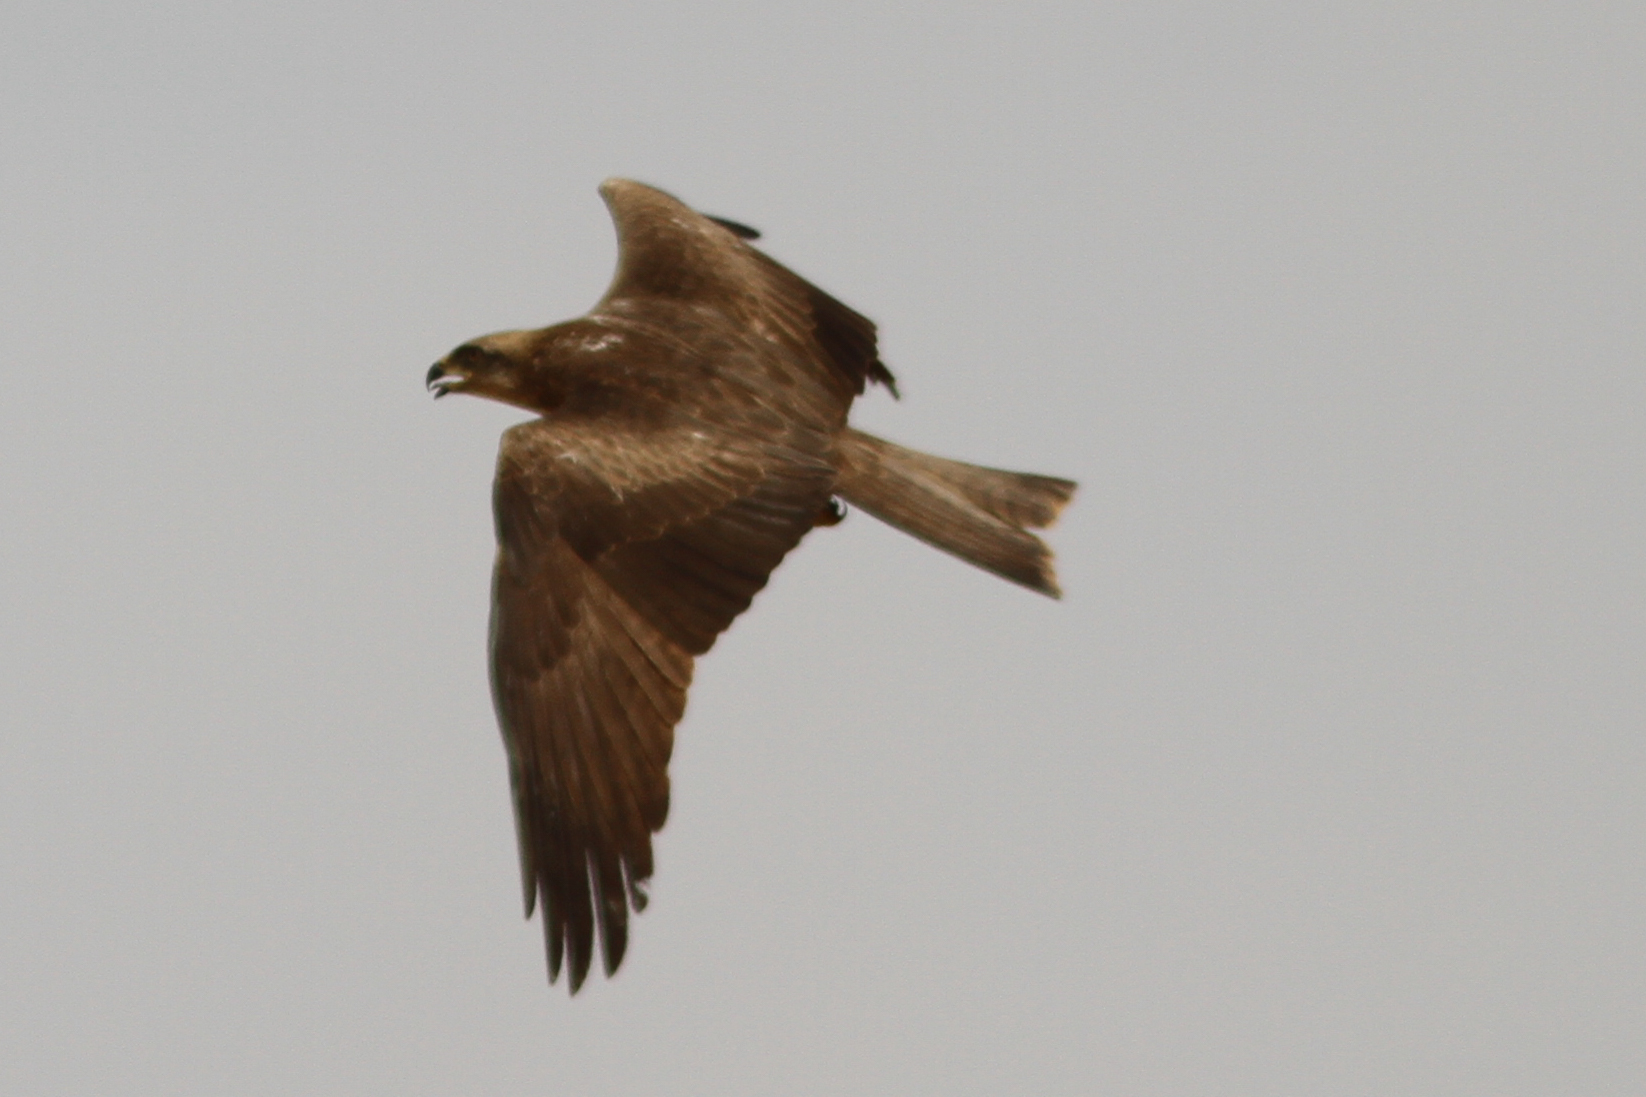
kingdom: Animalia
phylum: Chordata
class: Aves
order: Accipitriformes
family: Accipitridae
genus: Milvus
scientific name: Milvus migrans
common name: Black kite
